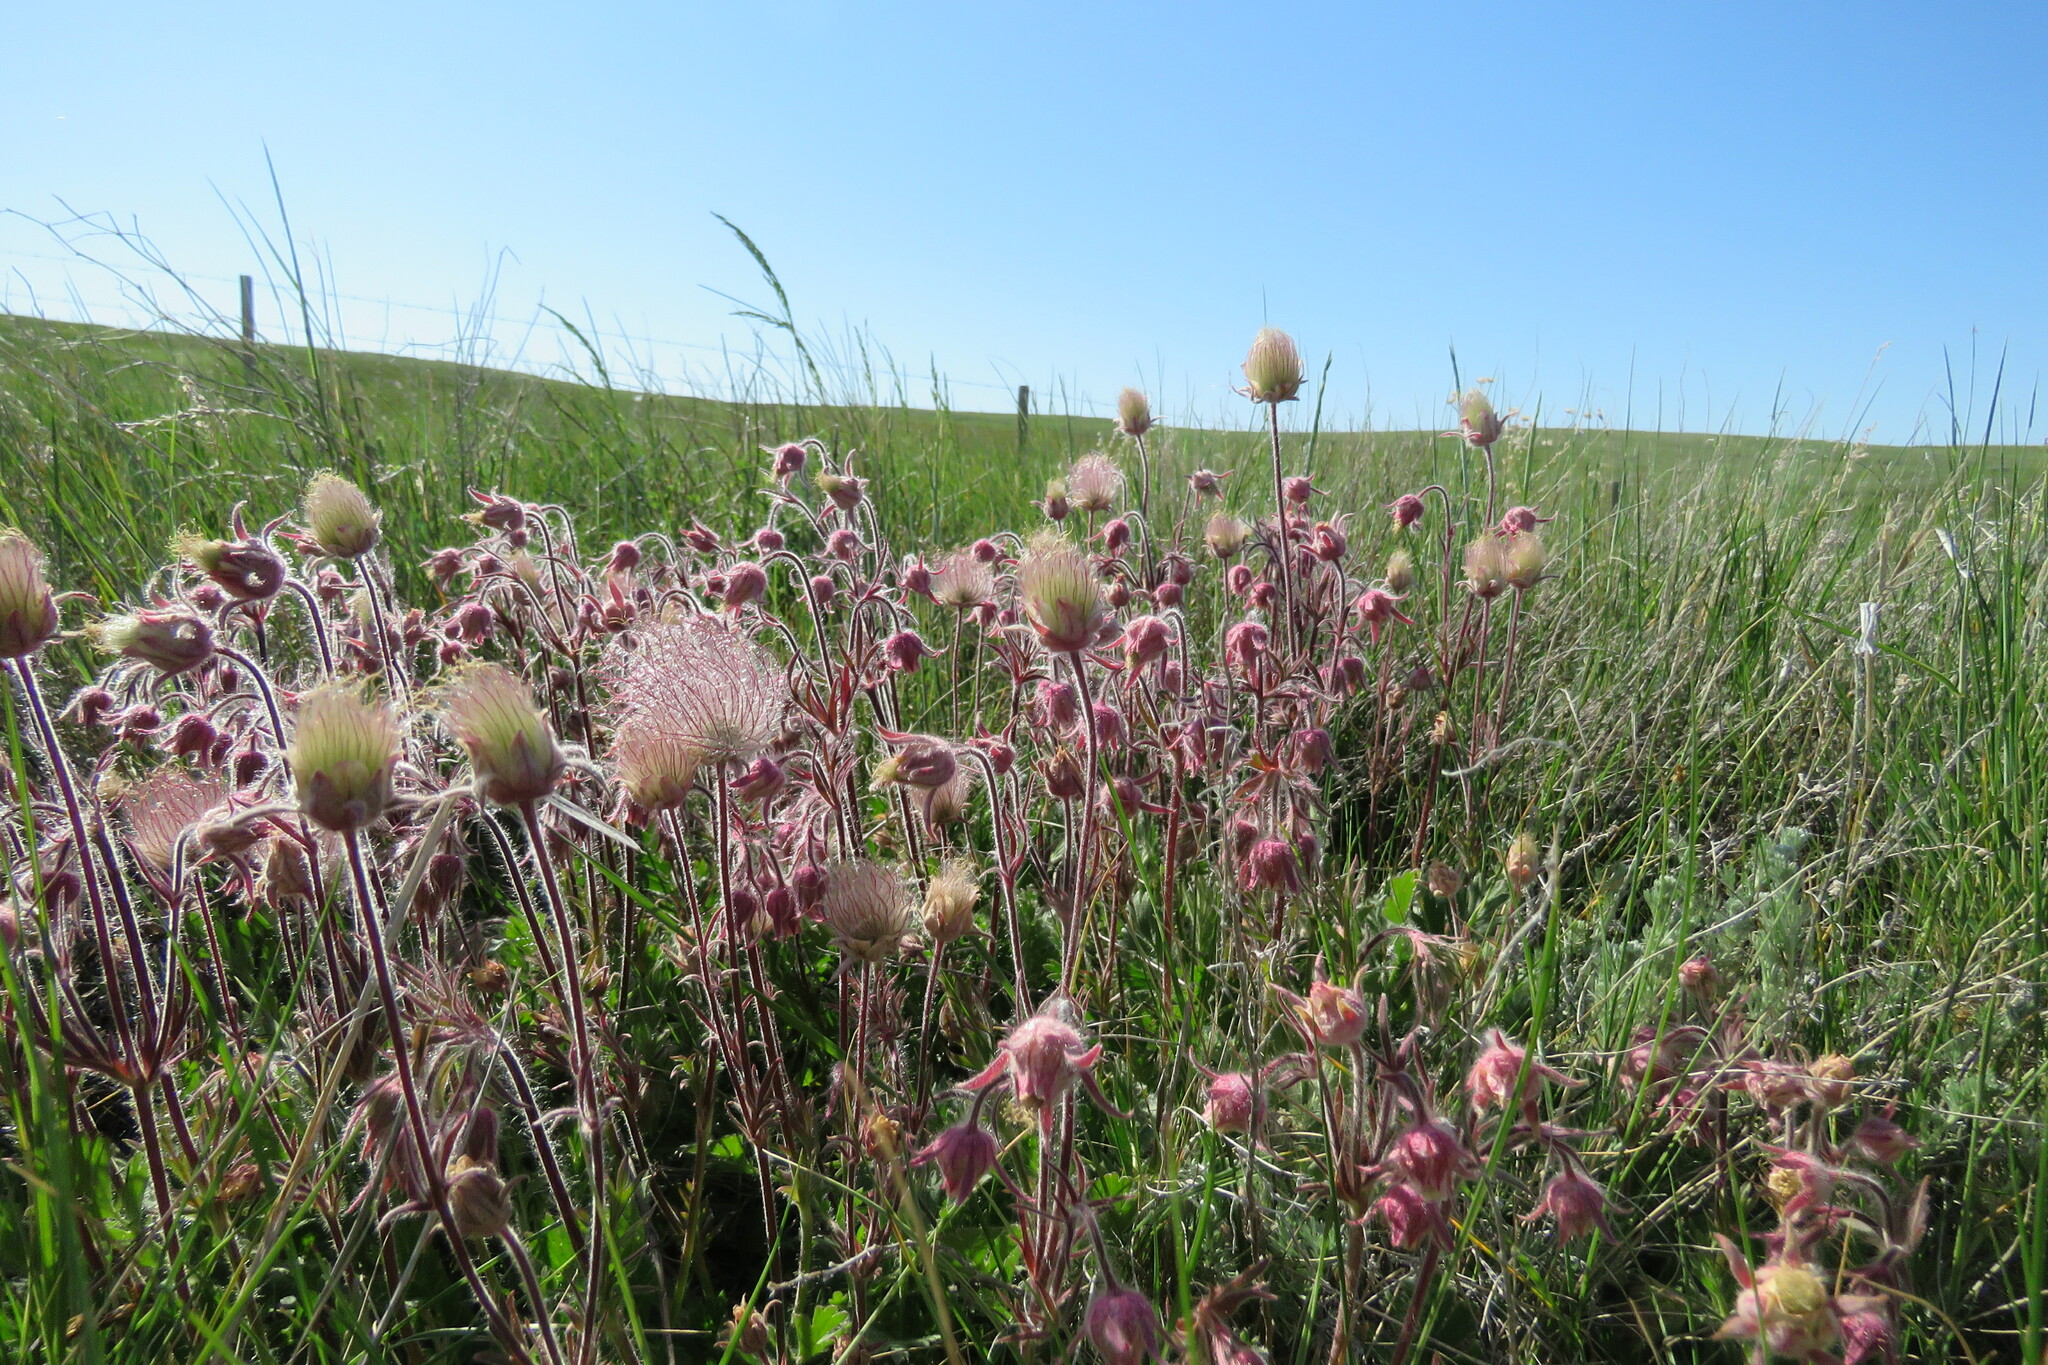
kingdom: Plantae
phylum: Tracheophyta
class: Magnoliopsida
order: Rosales
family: Rosaceae
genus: Geum
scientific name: Geum triflorum
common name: Old man's whiskers
